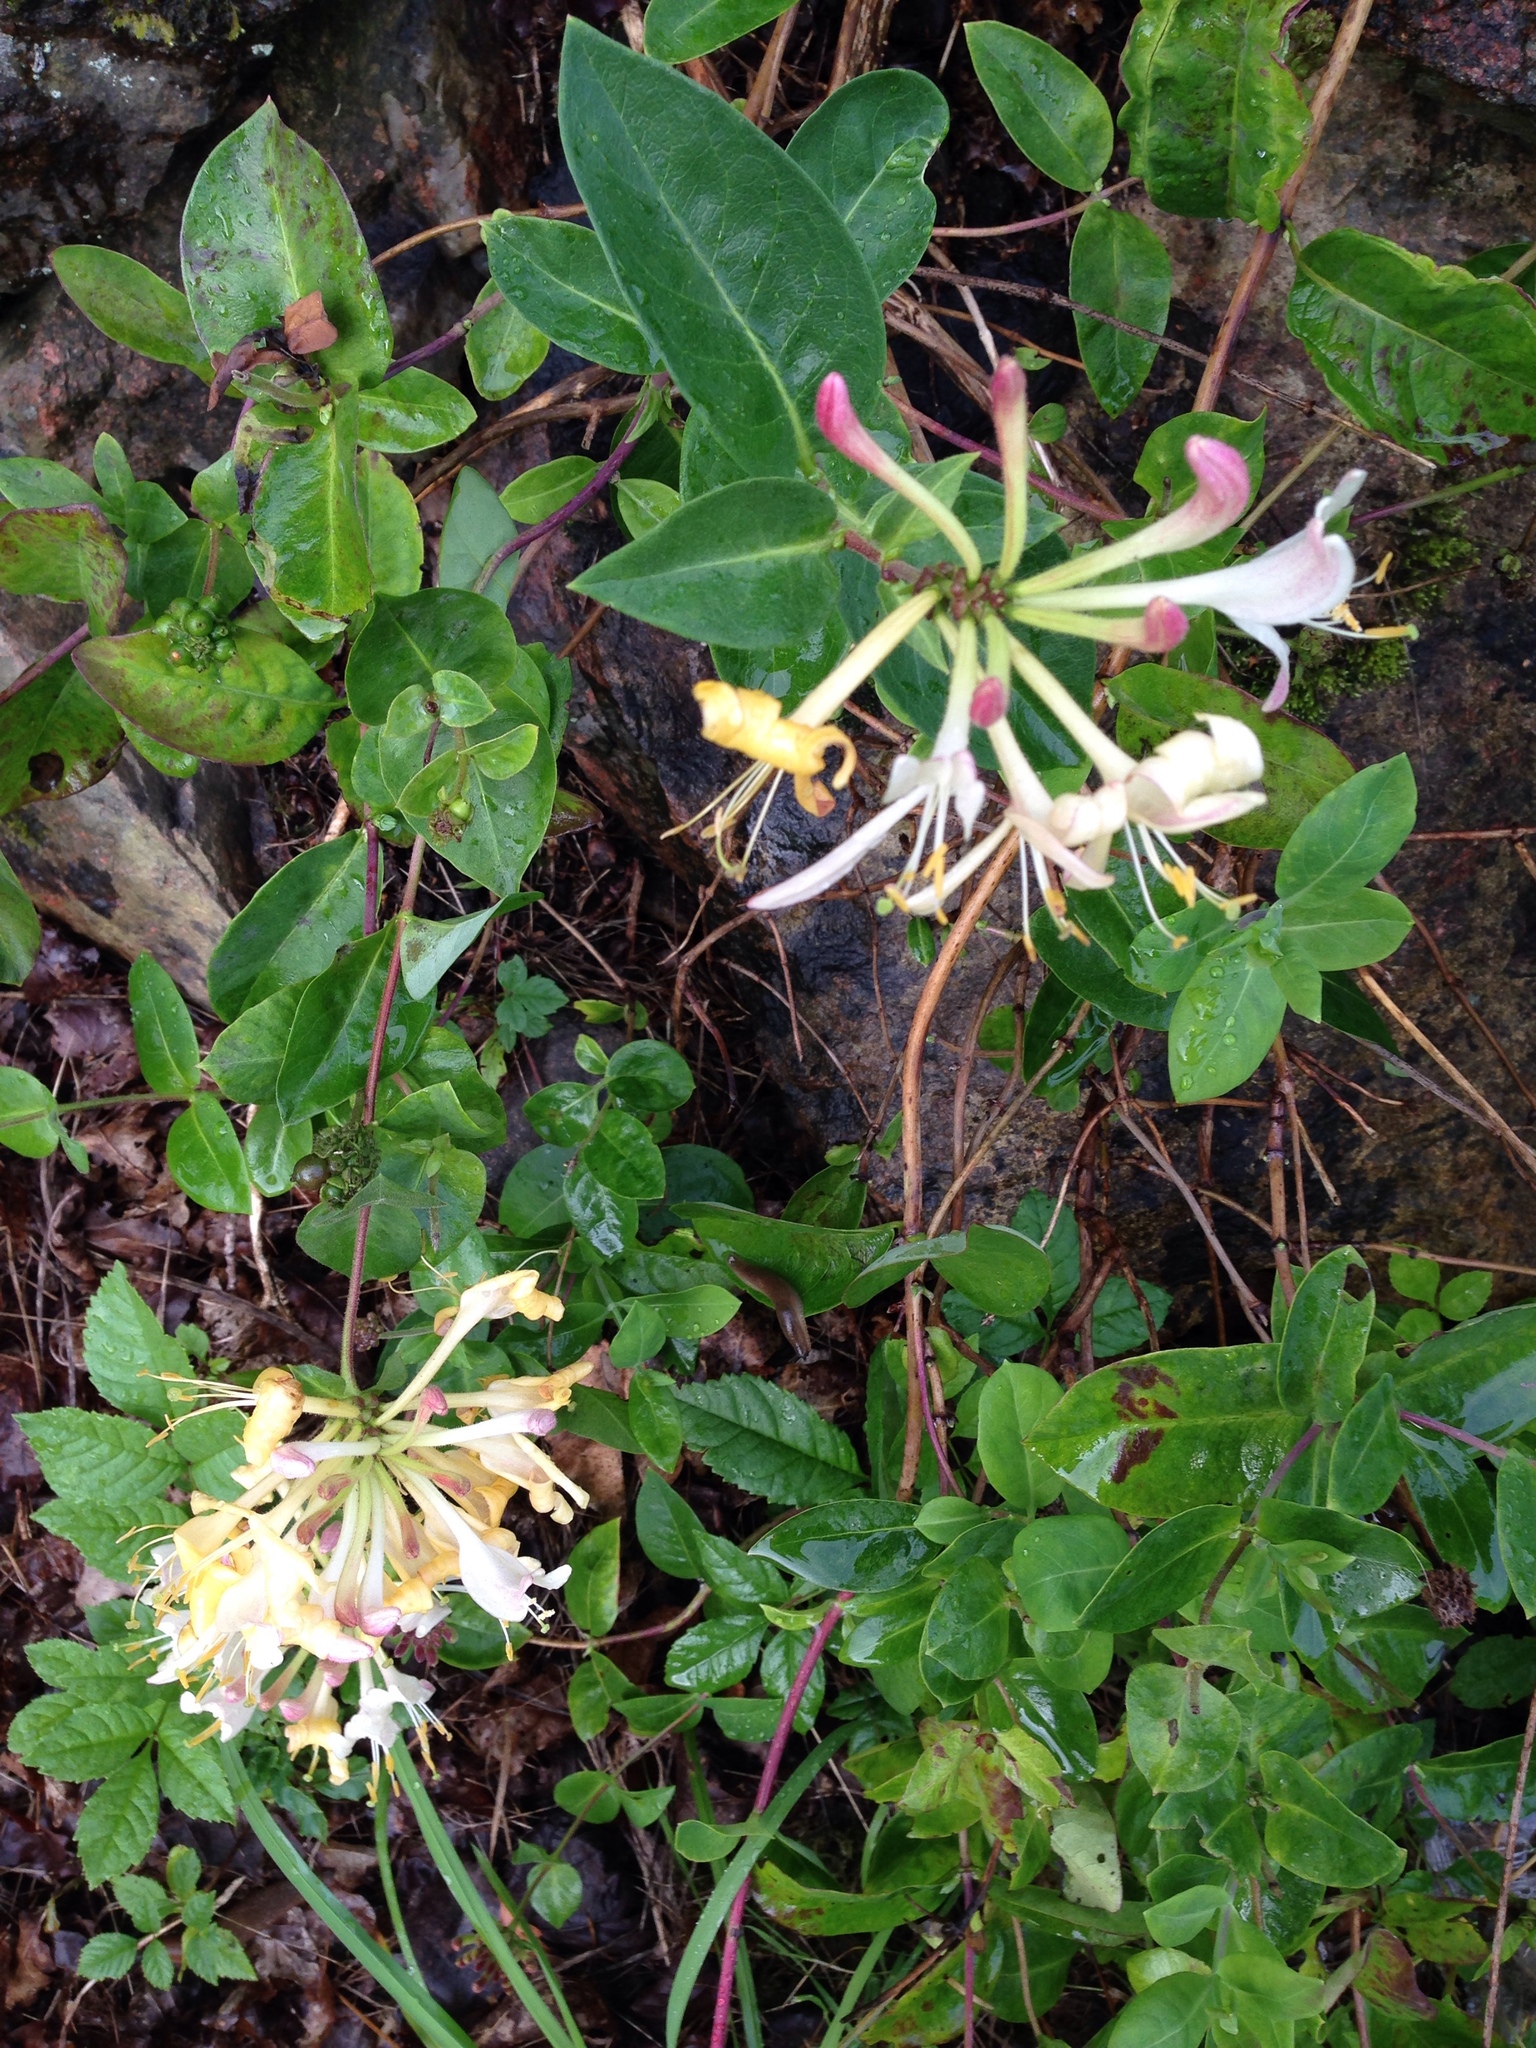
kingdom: Plantae
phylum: Tracheophyta
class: Magnoliopsida
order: Dipsacales
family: Caprifoliaceae
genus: Lonicera
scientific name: Lonicera periclymenum
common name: European honeysuckle
